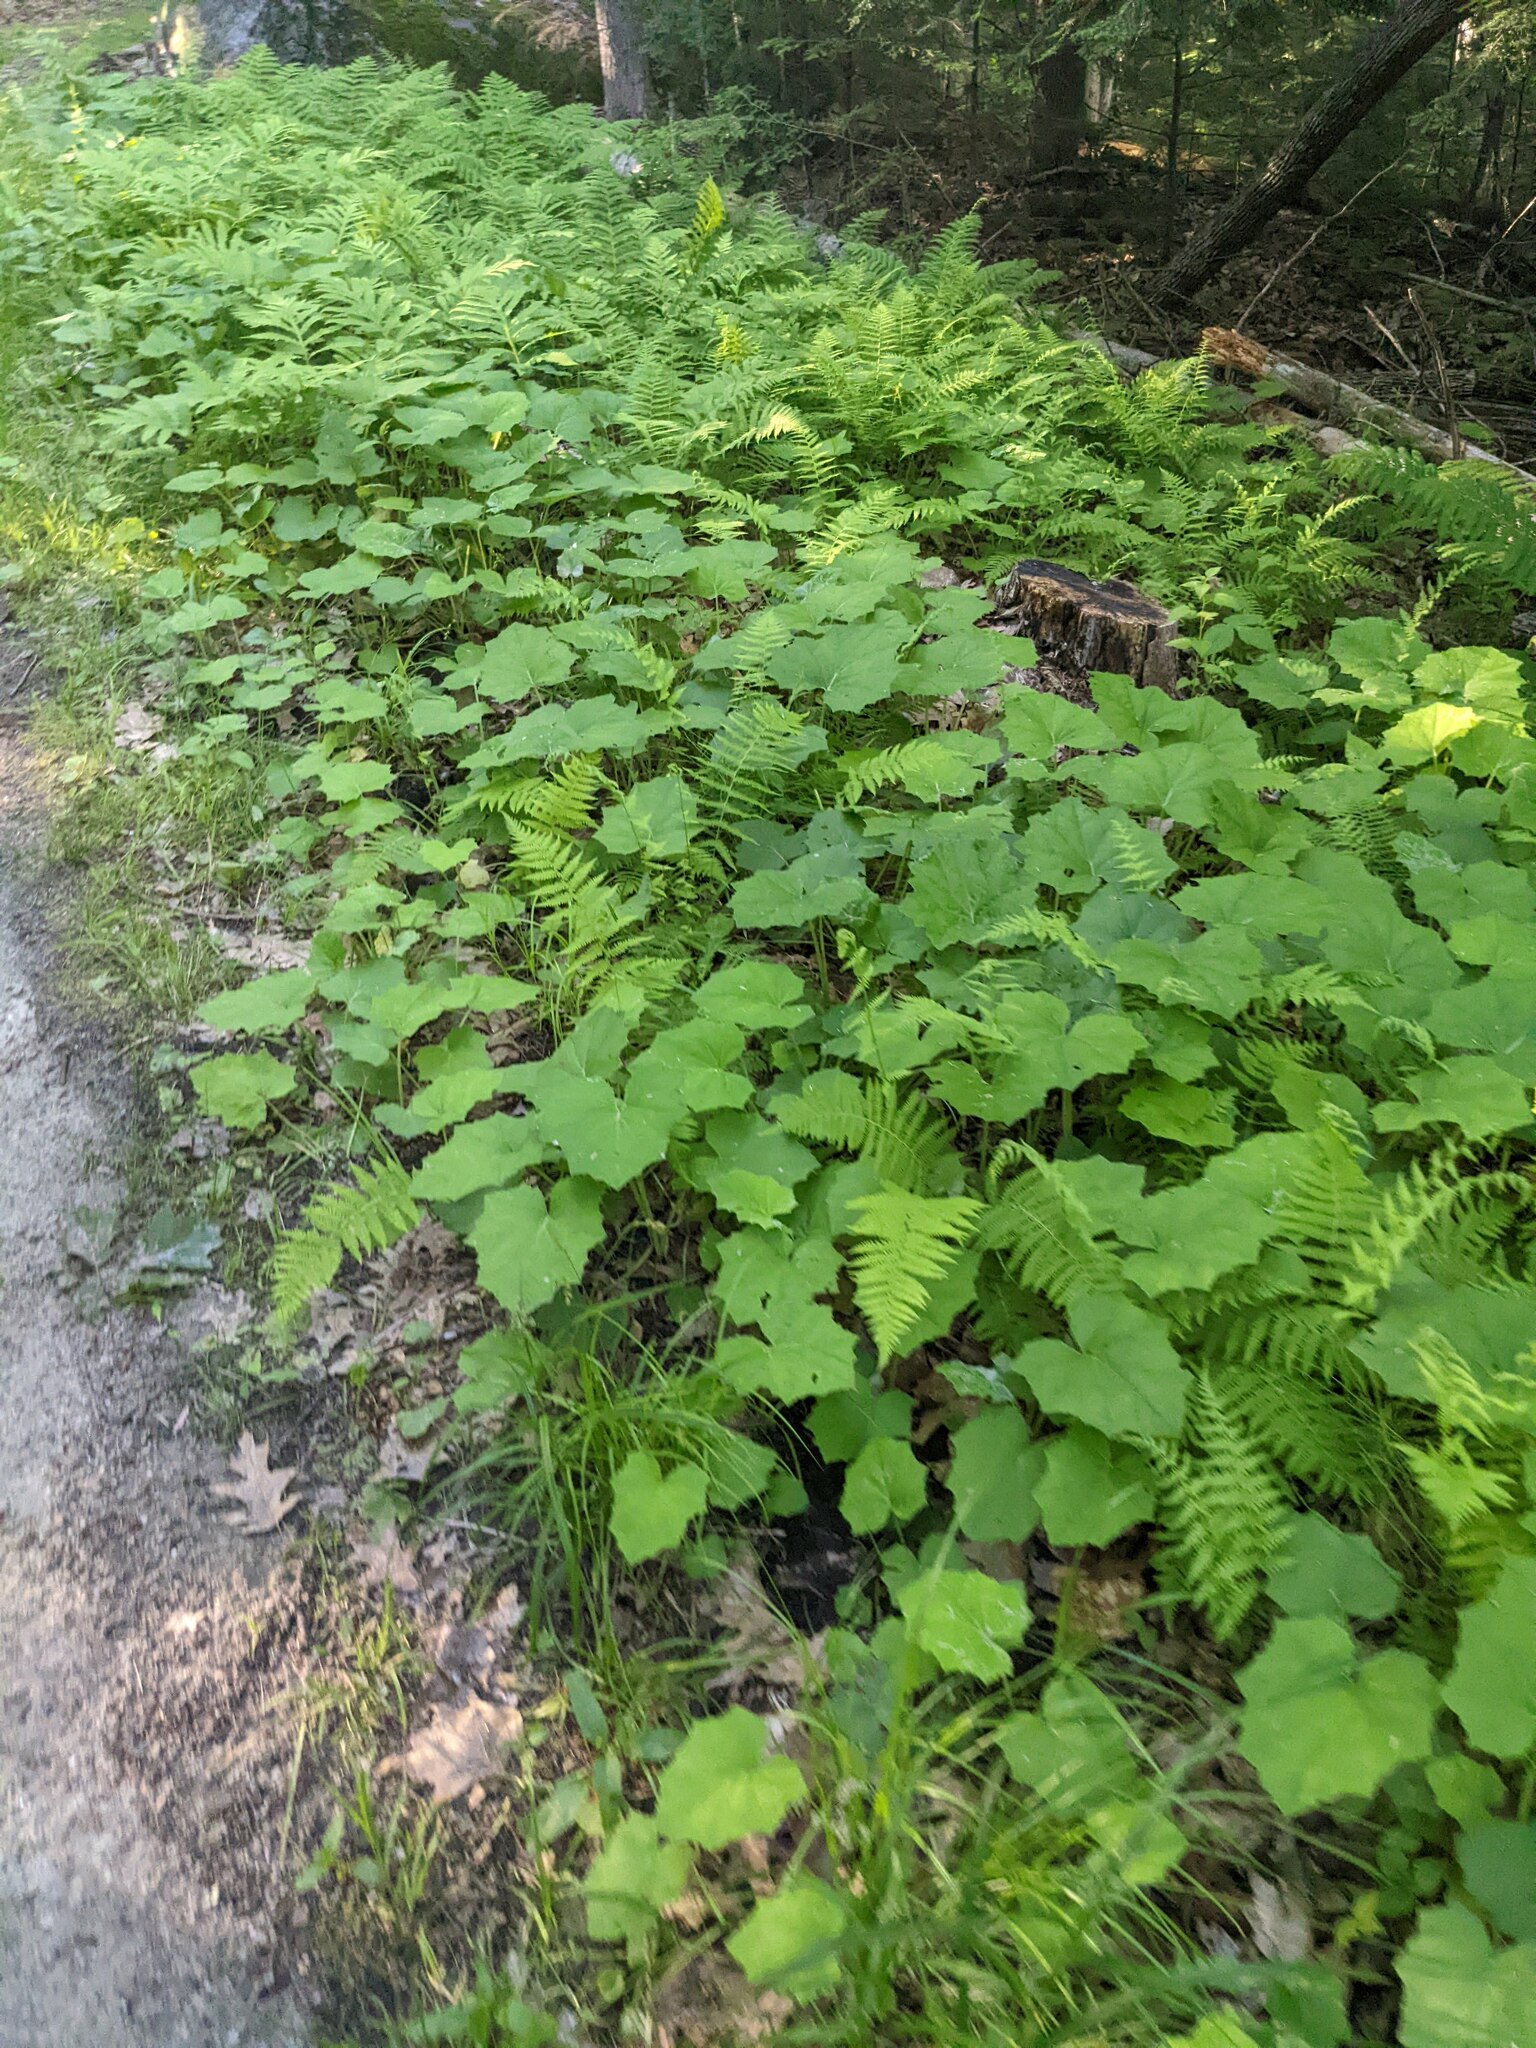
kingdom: Plantae
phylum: Tracheophyta
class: Magnoliopsida
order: Asterales
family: Asteraceae
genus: Tussilago
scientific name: Tussilago farfara
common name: Coltsfoot
